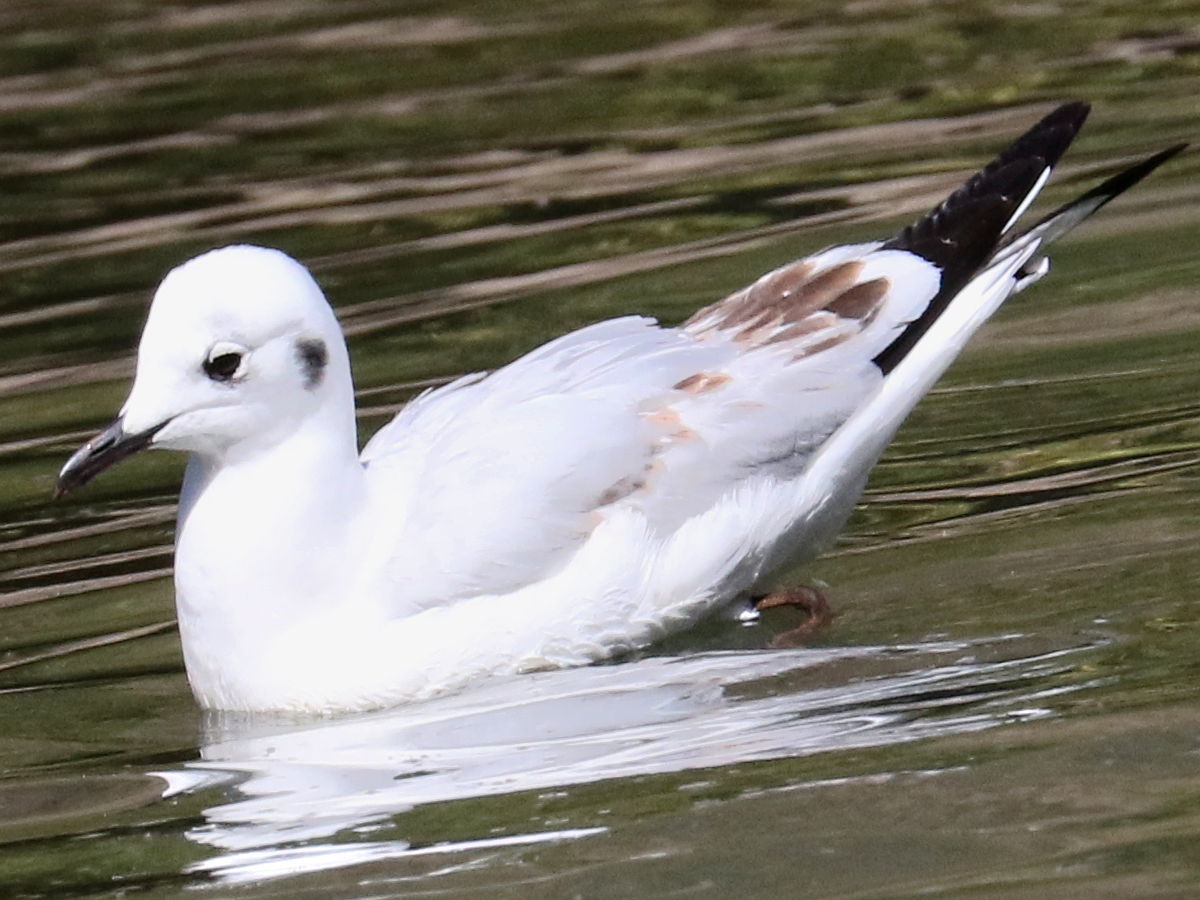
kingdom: Animalia
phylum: Chordata
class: Aves
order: Charadriiformes
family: Laridae
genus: Chroicocephalus
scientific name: Chroicocephalus serranus
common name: Andean gull
